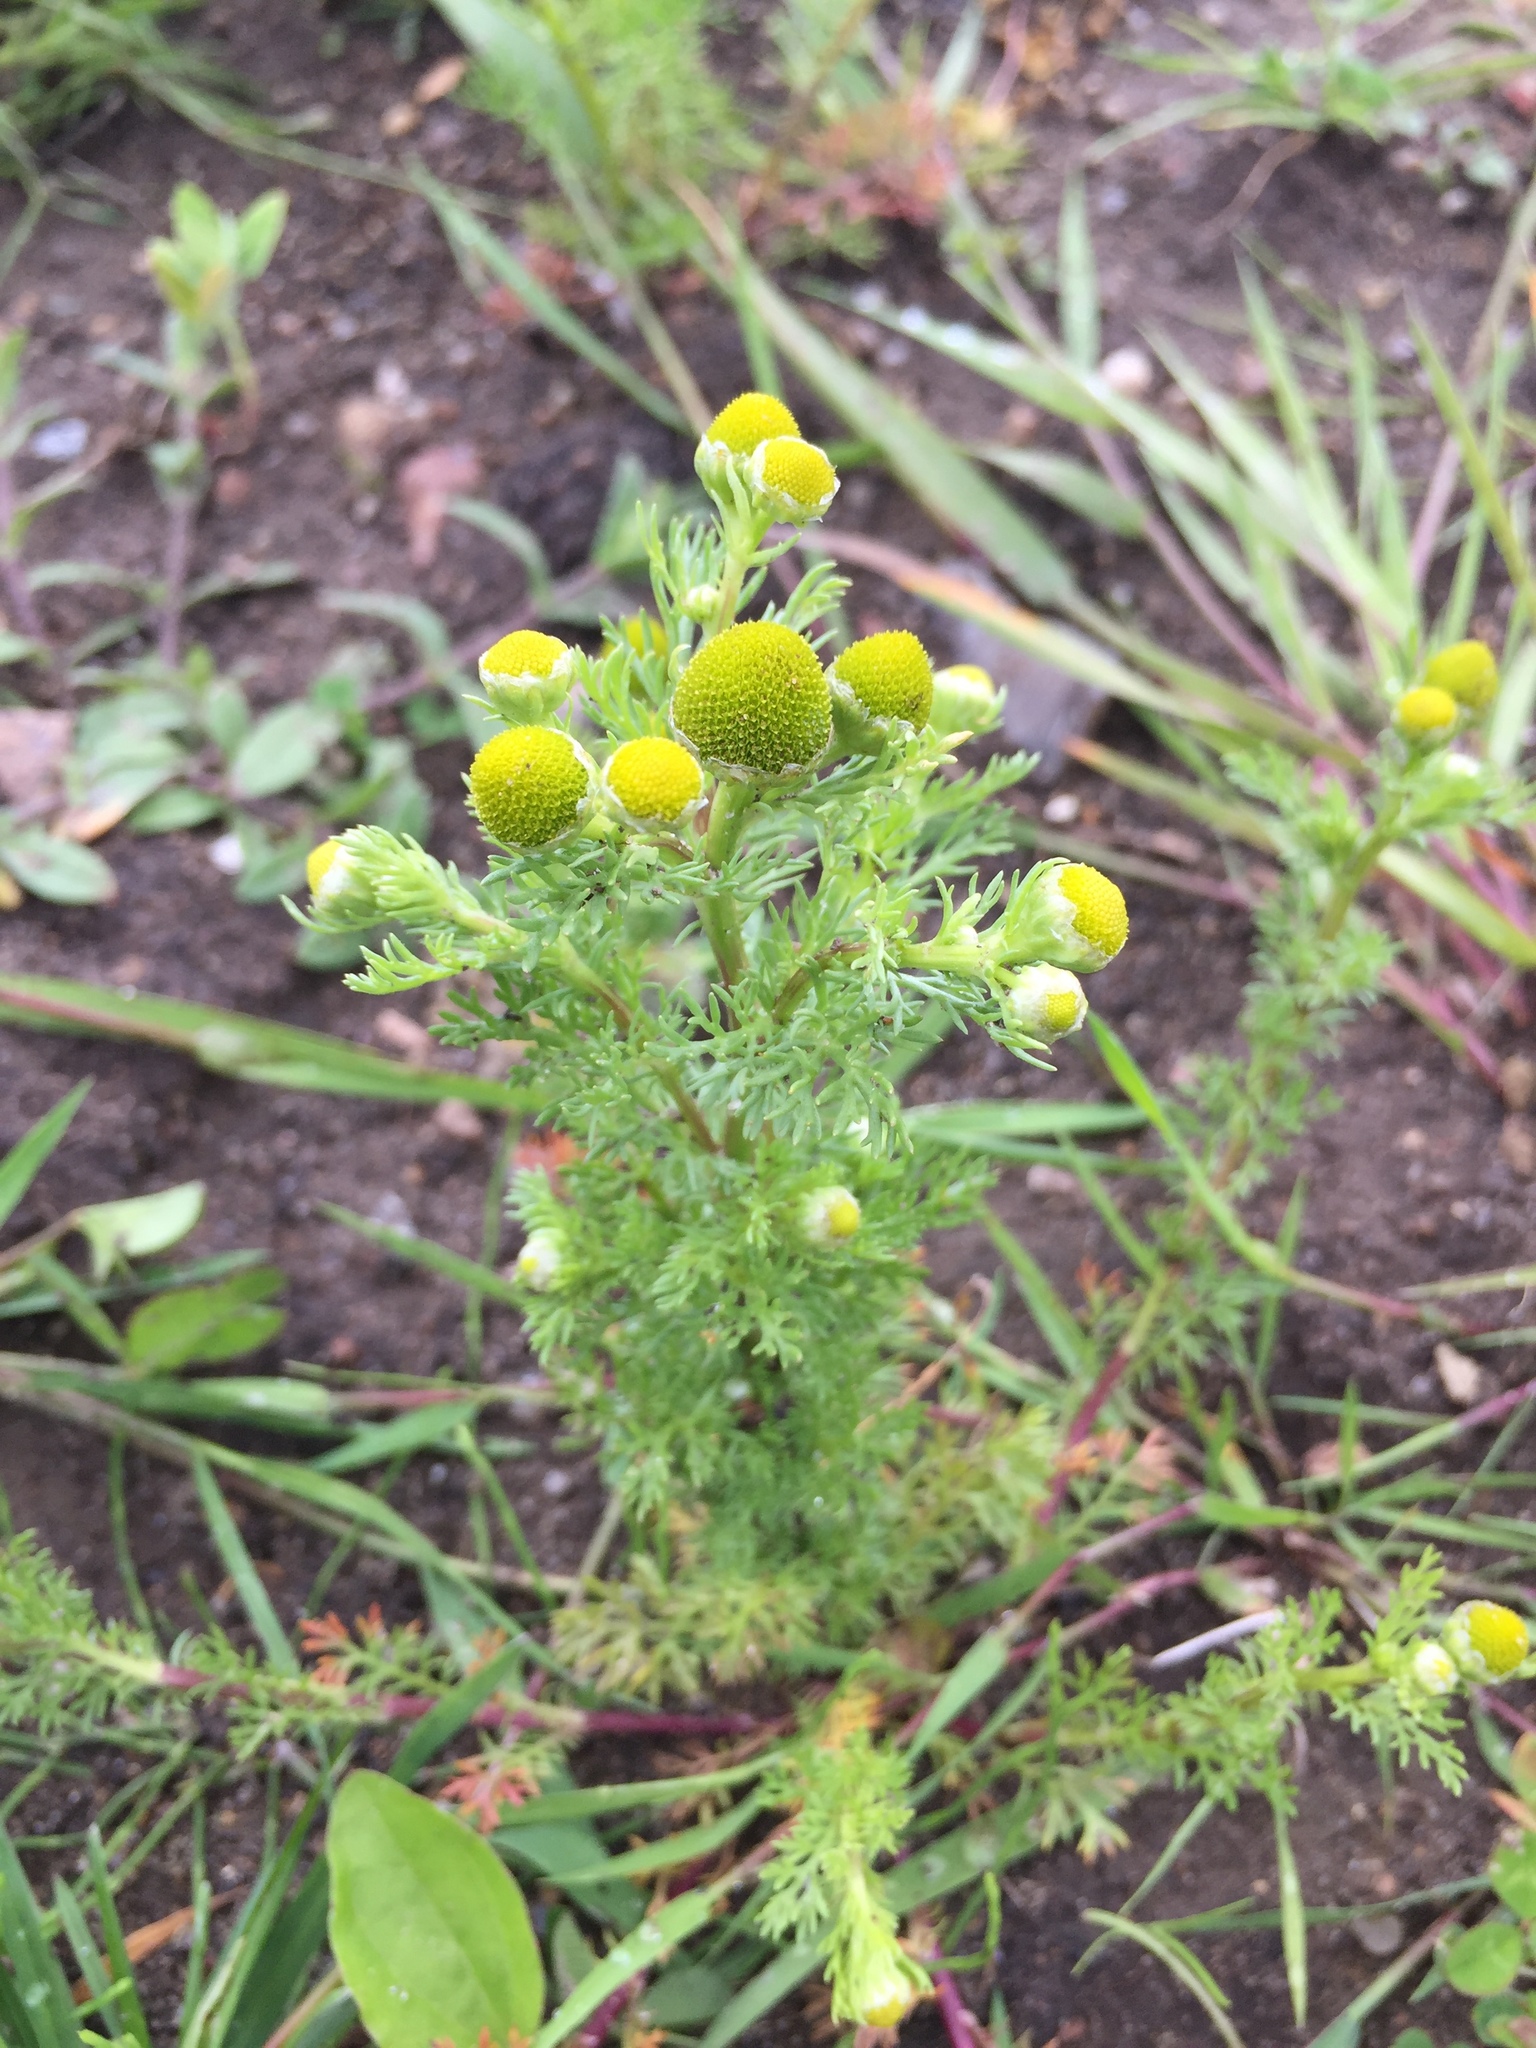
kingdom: Plantae
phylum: Tracheophyta
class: Magnoliopsida
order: Asterales
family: Asteraceae
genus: Matricaria
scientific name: Matricaria discoidea
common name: Disc mayweed
